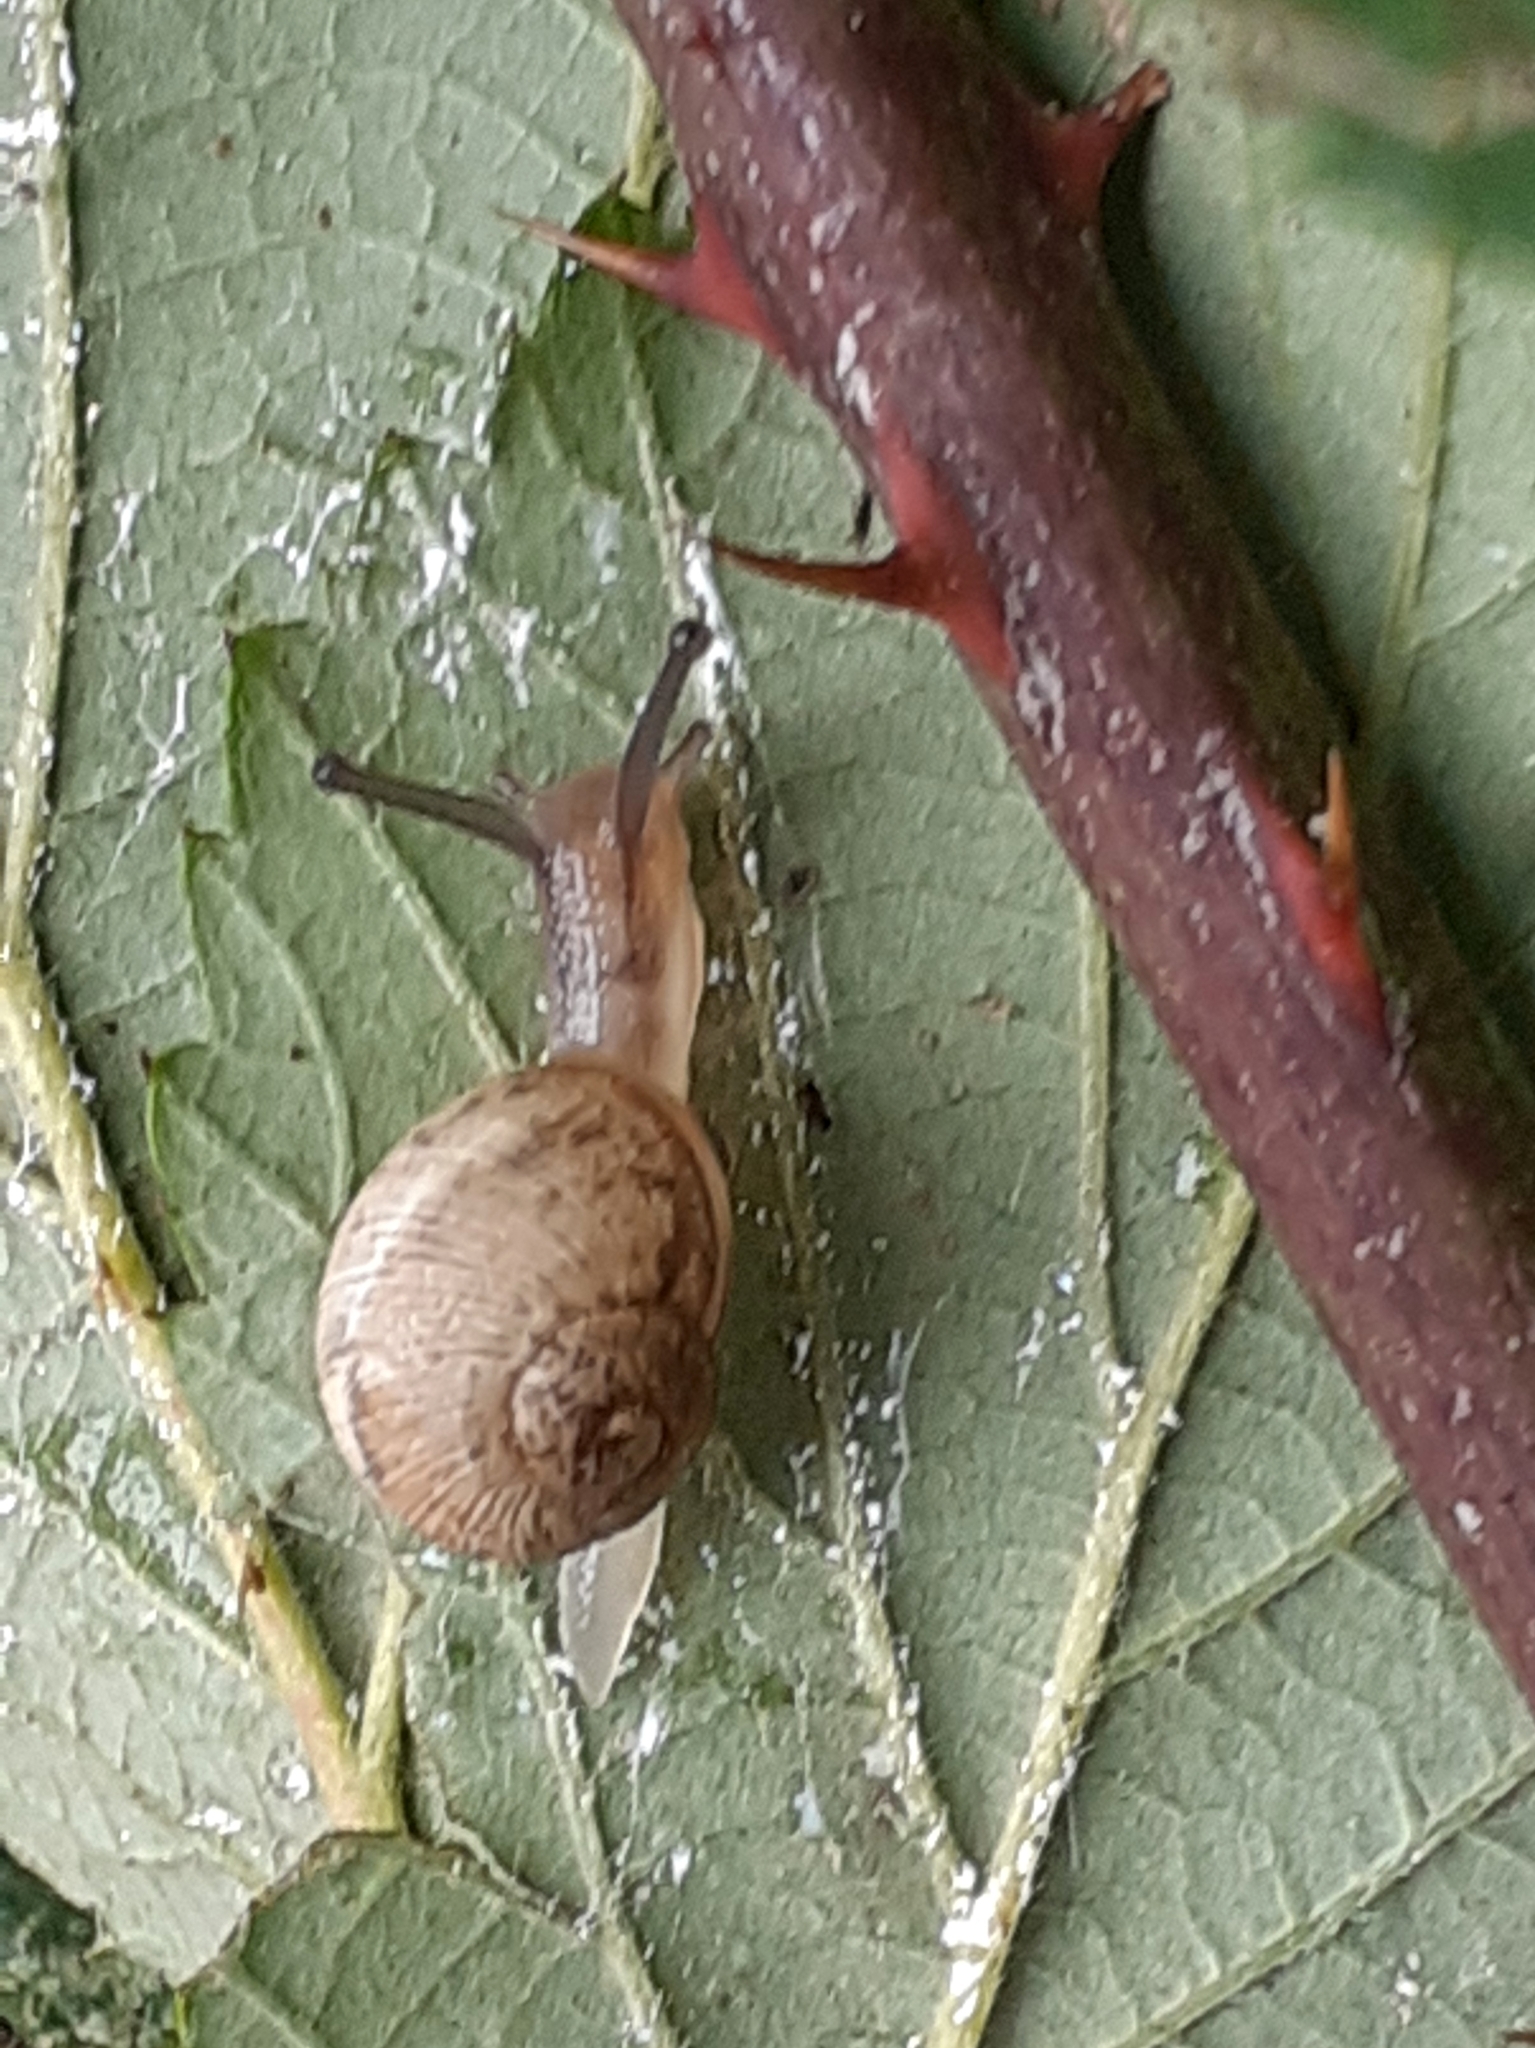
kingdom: Animalia
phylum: Mollusca
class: Gastropoda
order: Stylommatophora
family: Helicidae
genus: Cornu
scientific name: Cornu aspersum
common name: Brown garden snail
